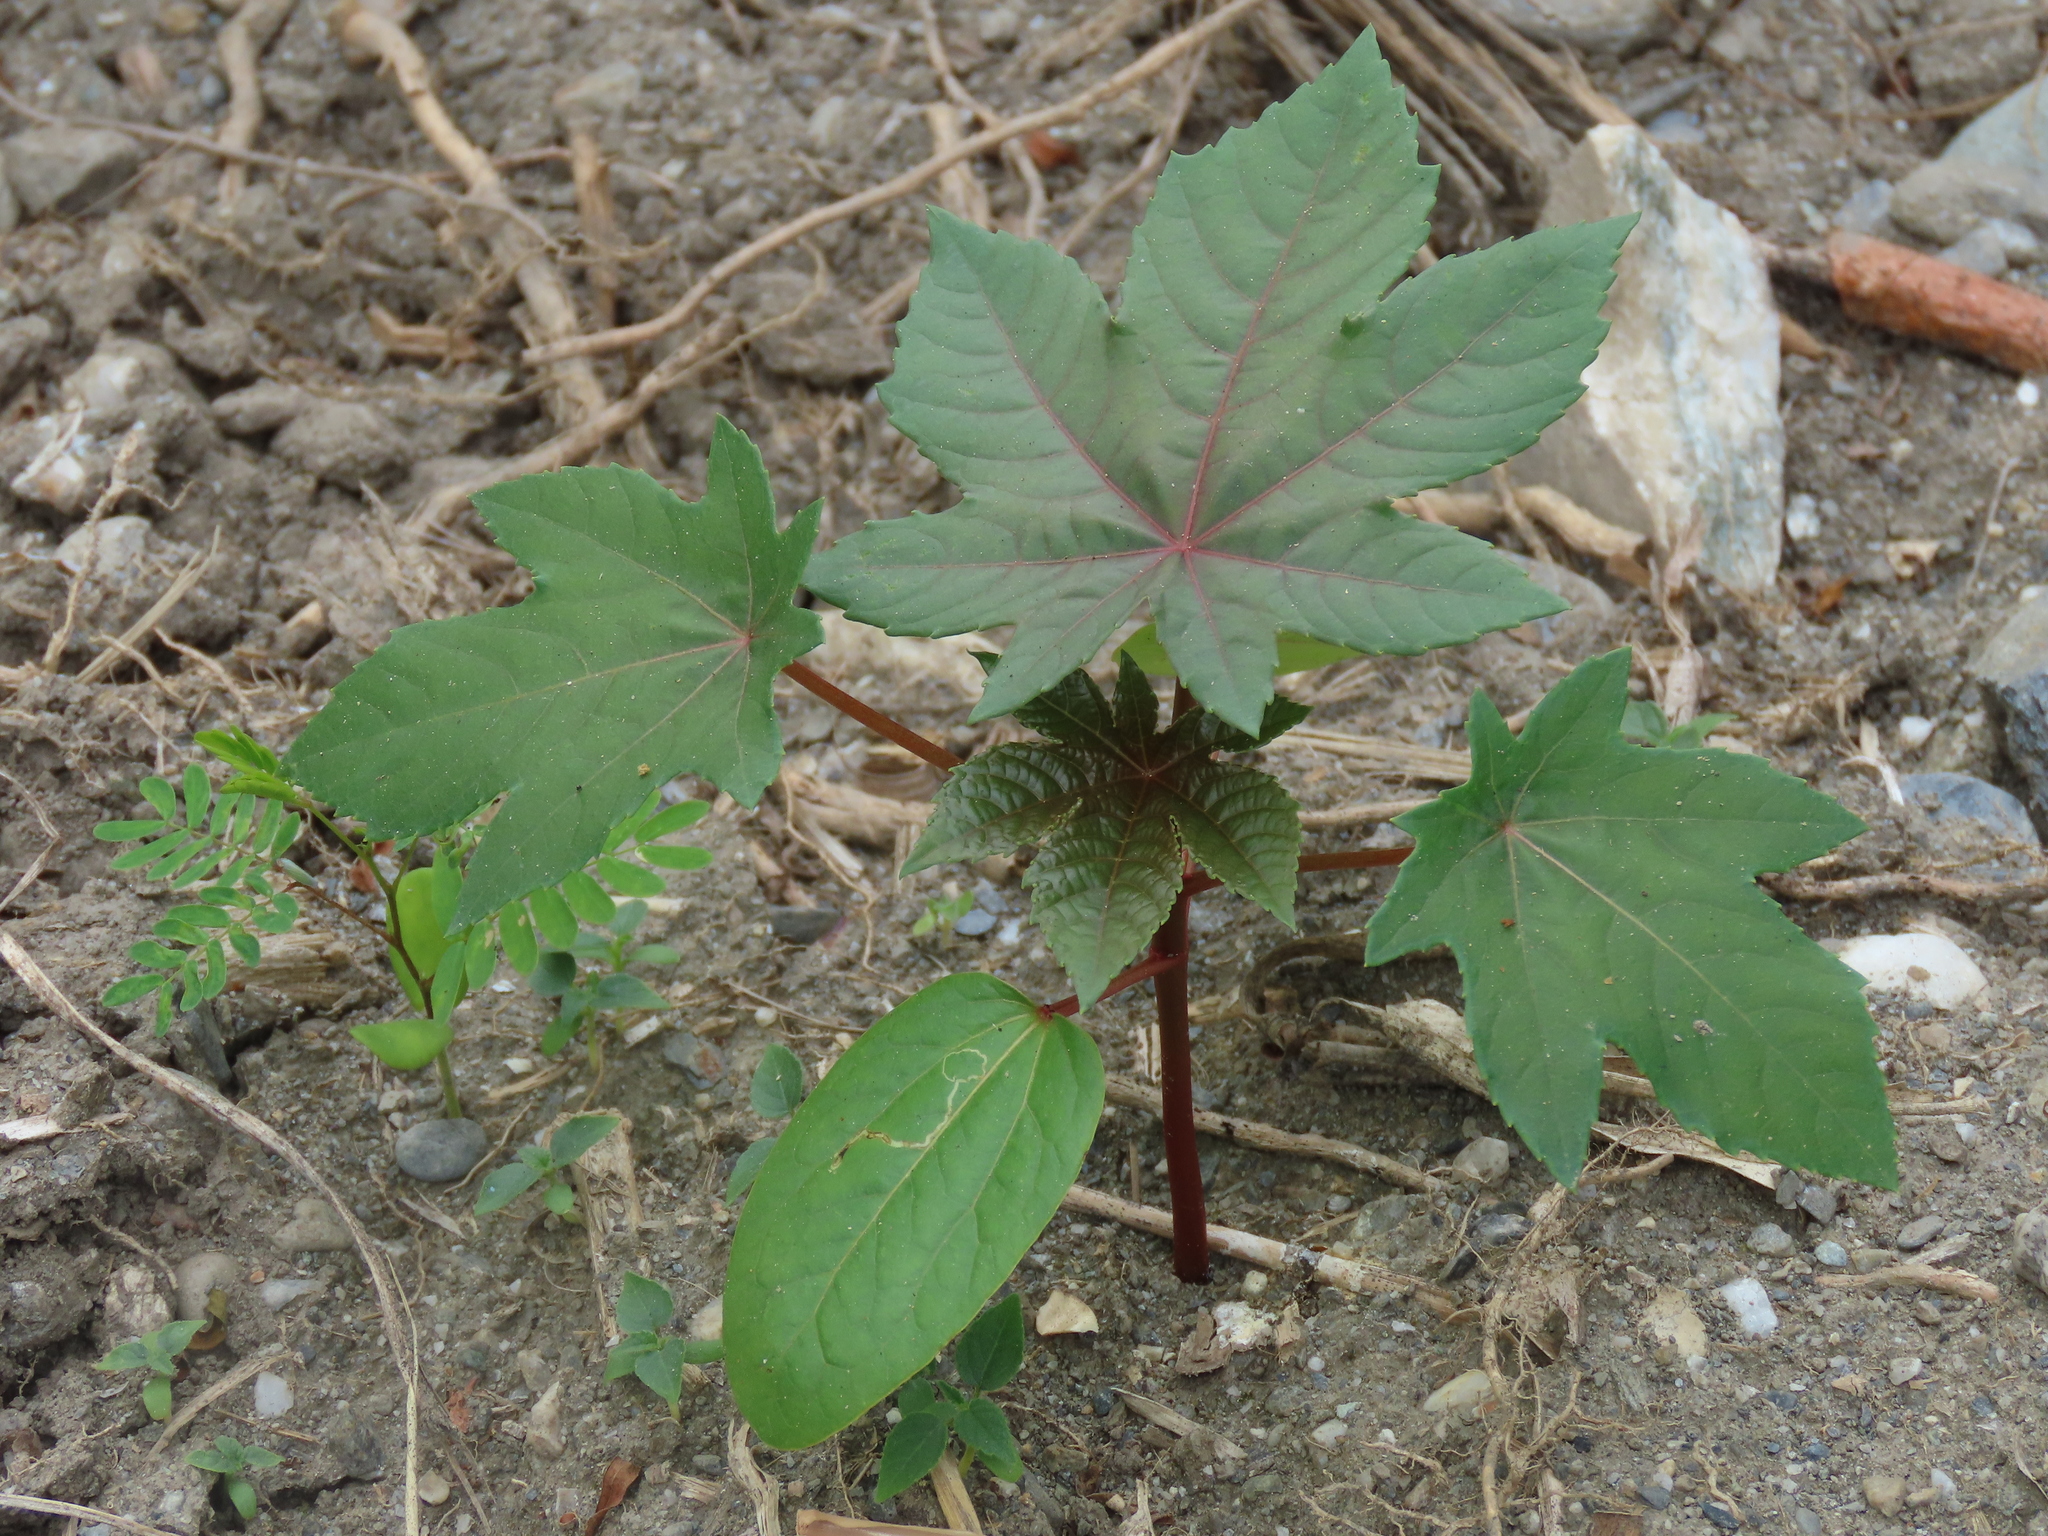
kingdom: Plantae
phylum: Tracheophyta
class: Magnoliopsida
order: Malpighiales
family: Euphorbiaceae
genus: Ricinus
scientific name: Ricinus communis
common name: Castor-oil-plant
